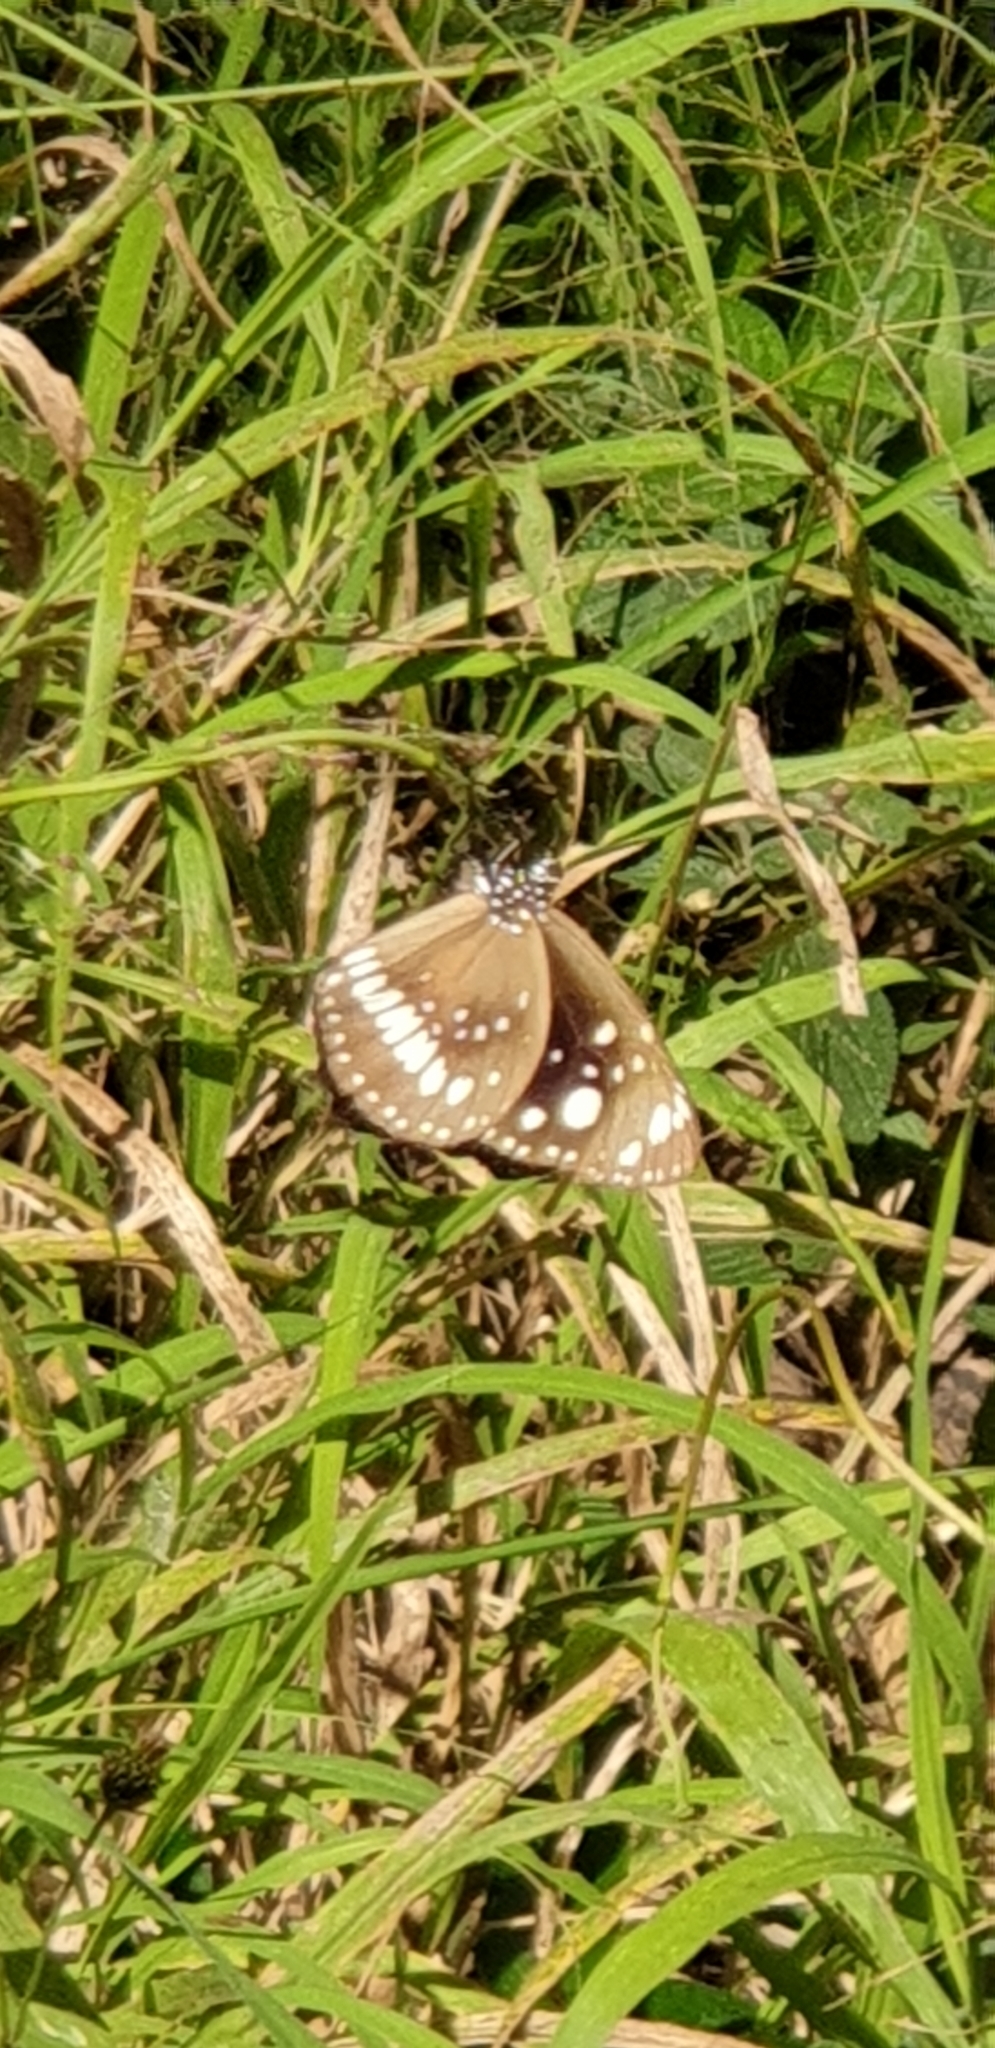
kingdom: Animalia
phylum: Arthropoda
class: Insecta
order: Lepidoptera
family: Nymphalidae
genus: Euploea
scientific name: Euploea core
